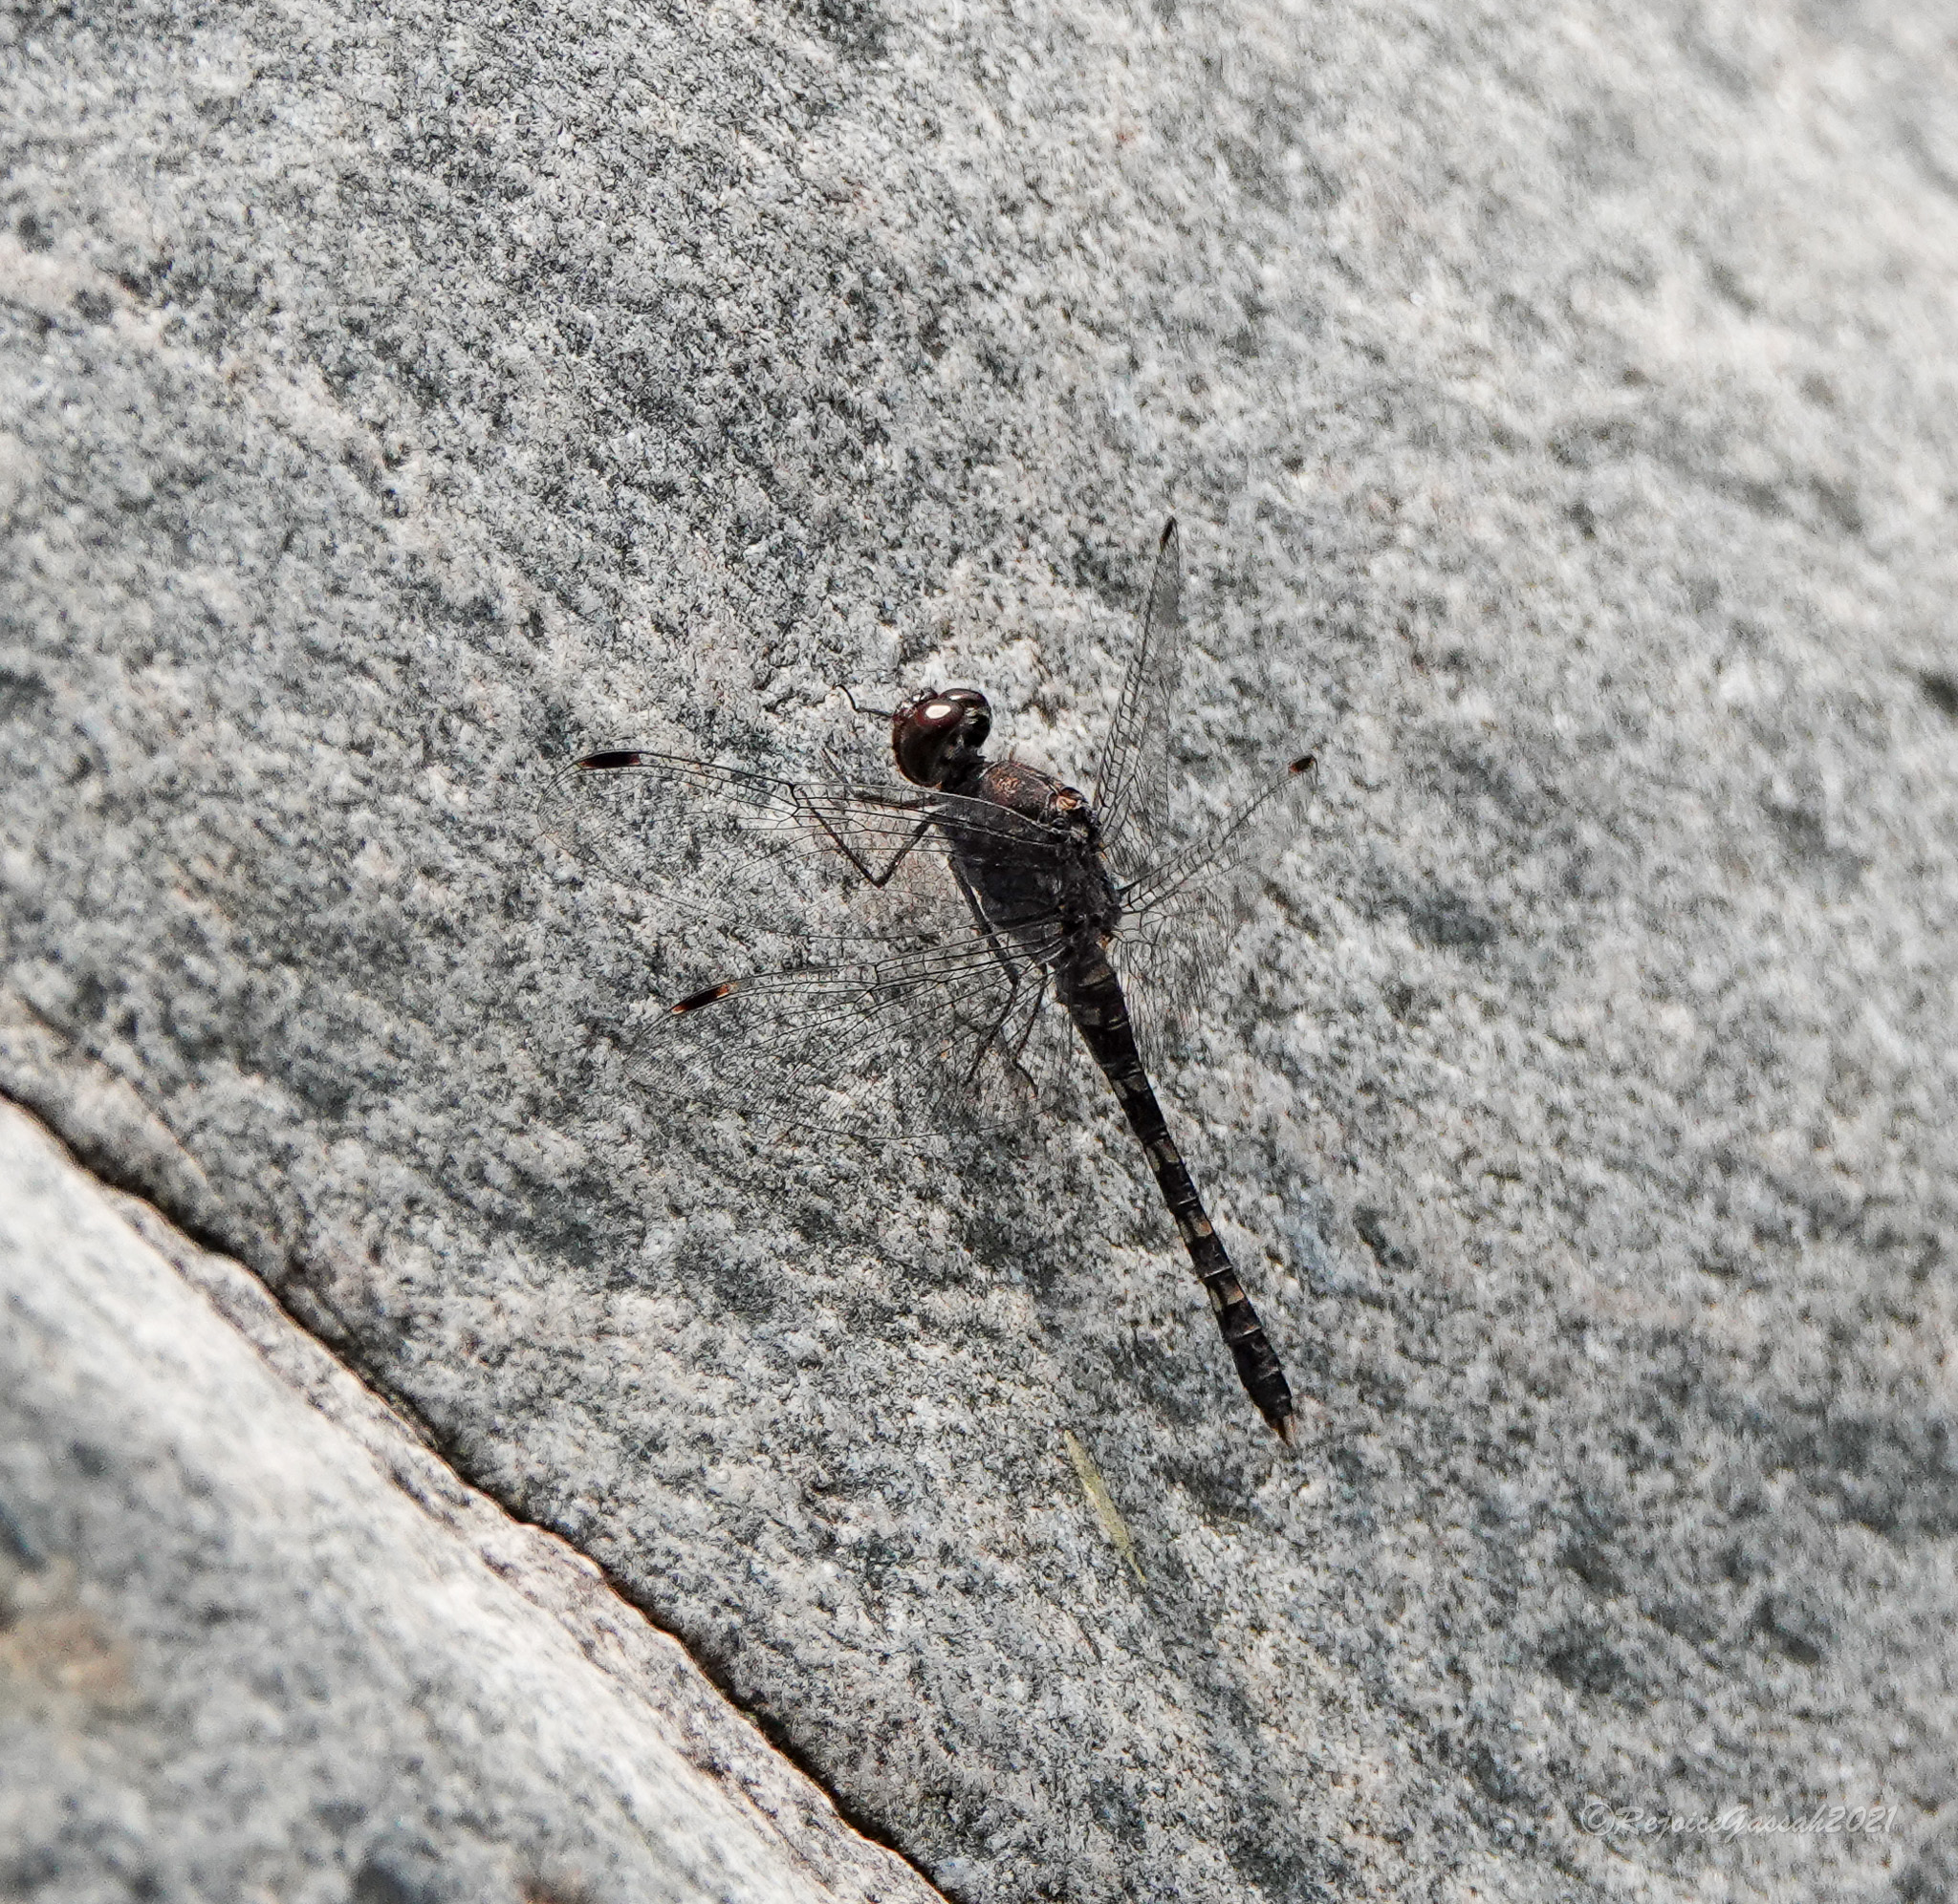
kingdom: Animalia
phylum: Arthropoda
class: Insecta
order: Odonata
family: Libellulidae
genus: Bradinopyga
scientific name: Bradinopyga geminata
